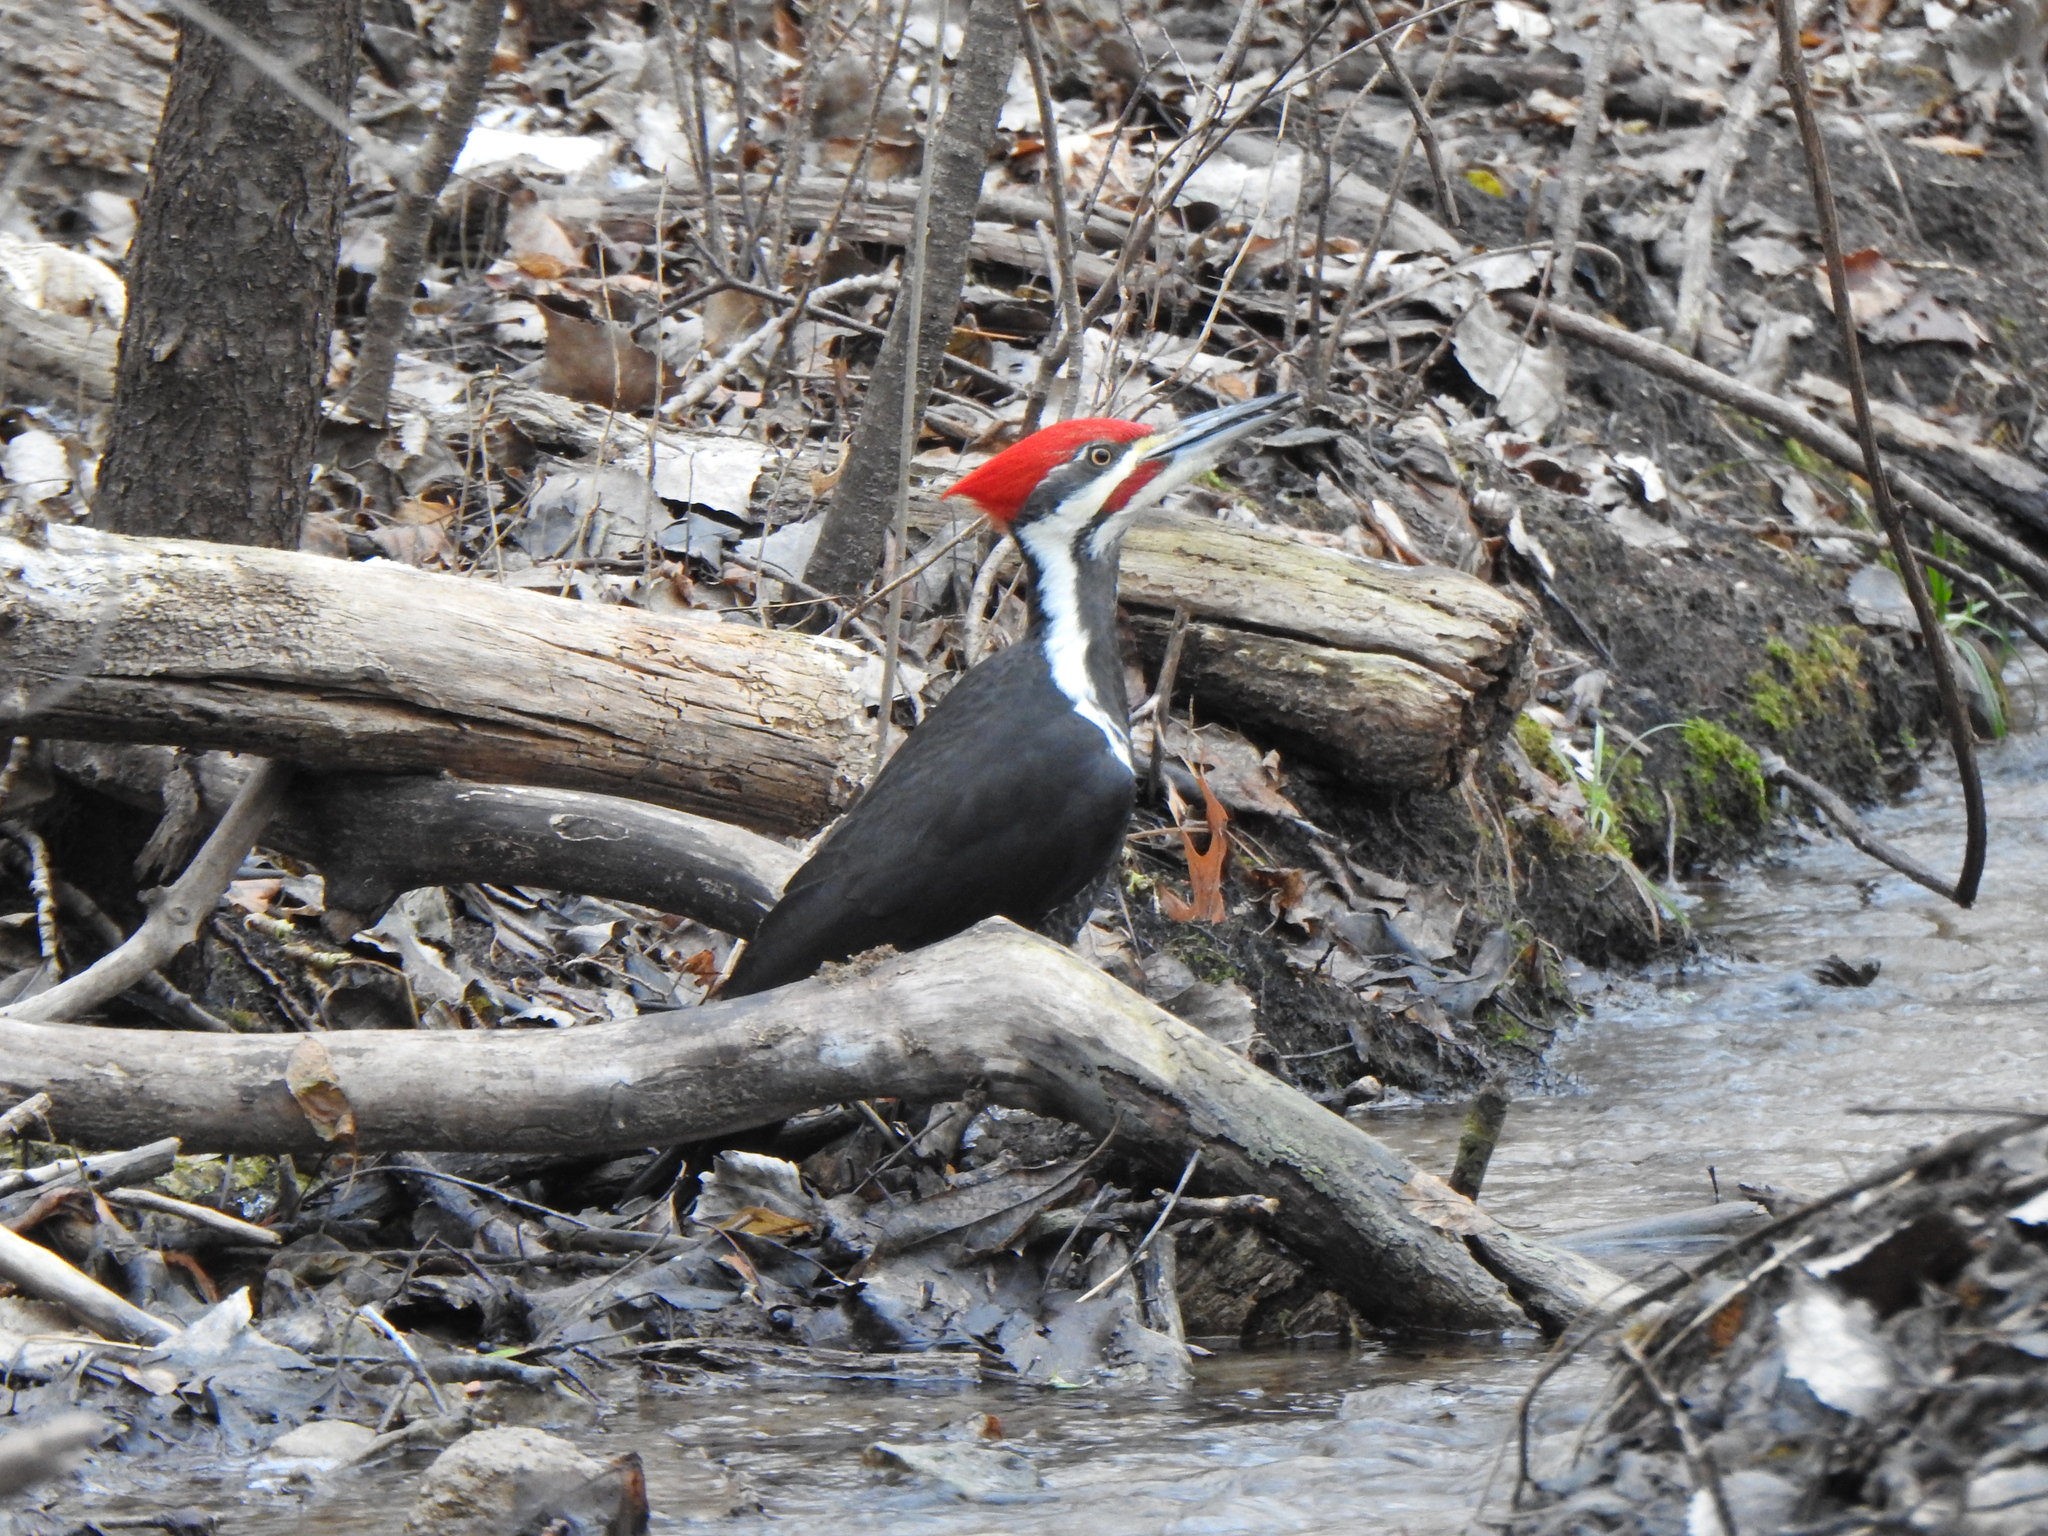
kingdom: Animalia
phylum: Chordata
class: Aves
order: Piciformes
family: Picidae
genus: Dryocopus
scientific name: Dryocopus pileatus
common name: Pileated woodpecker
